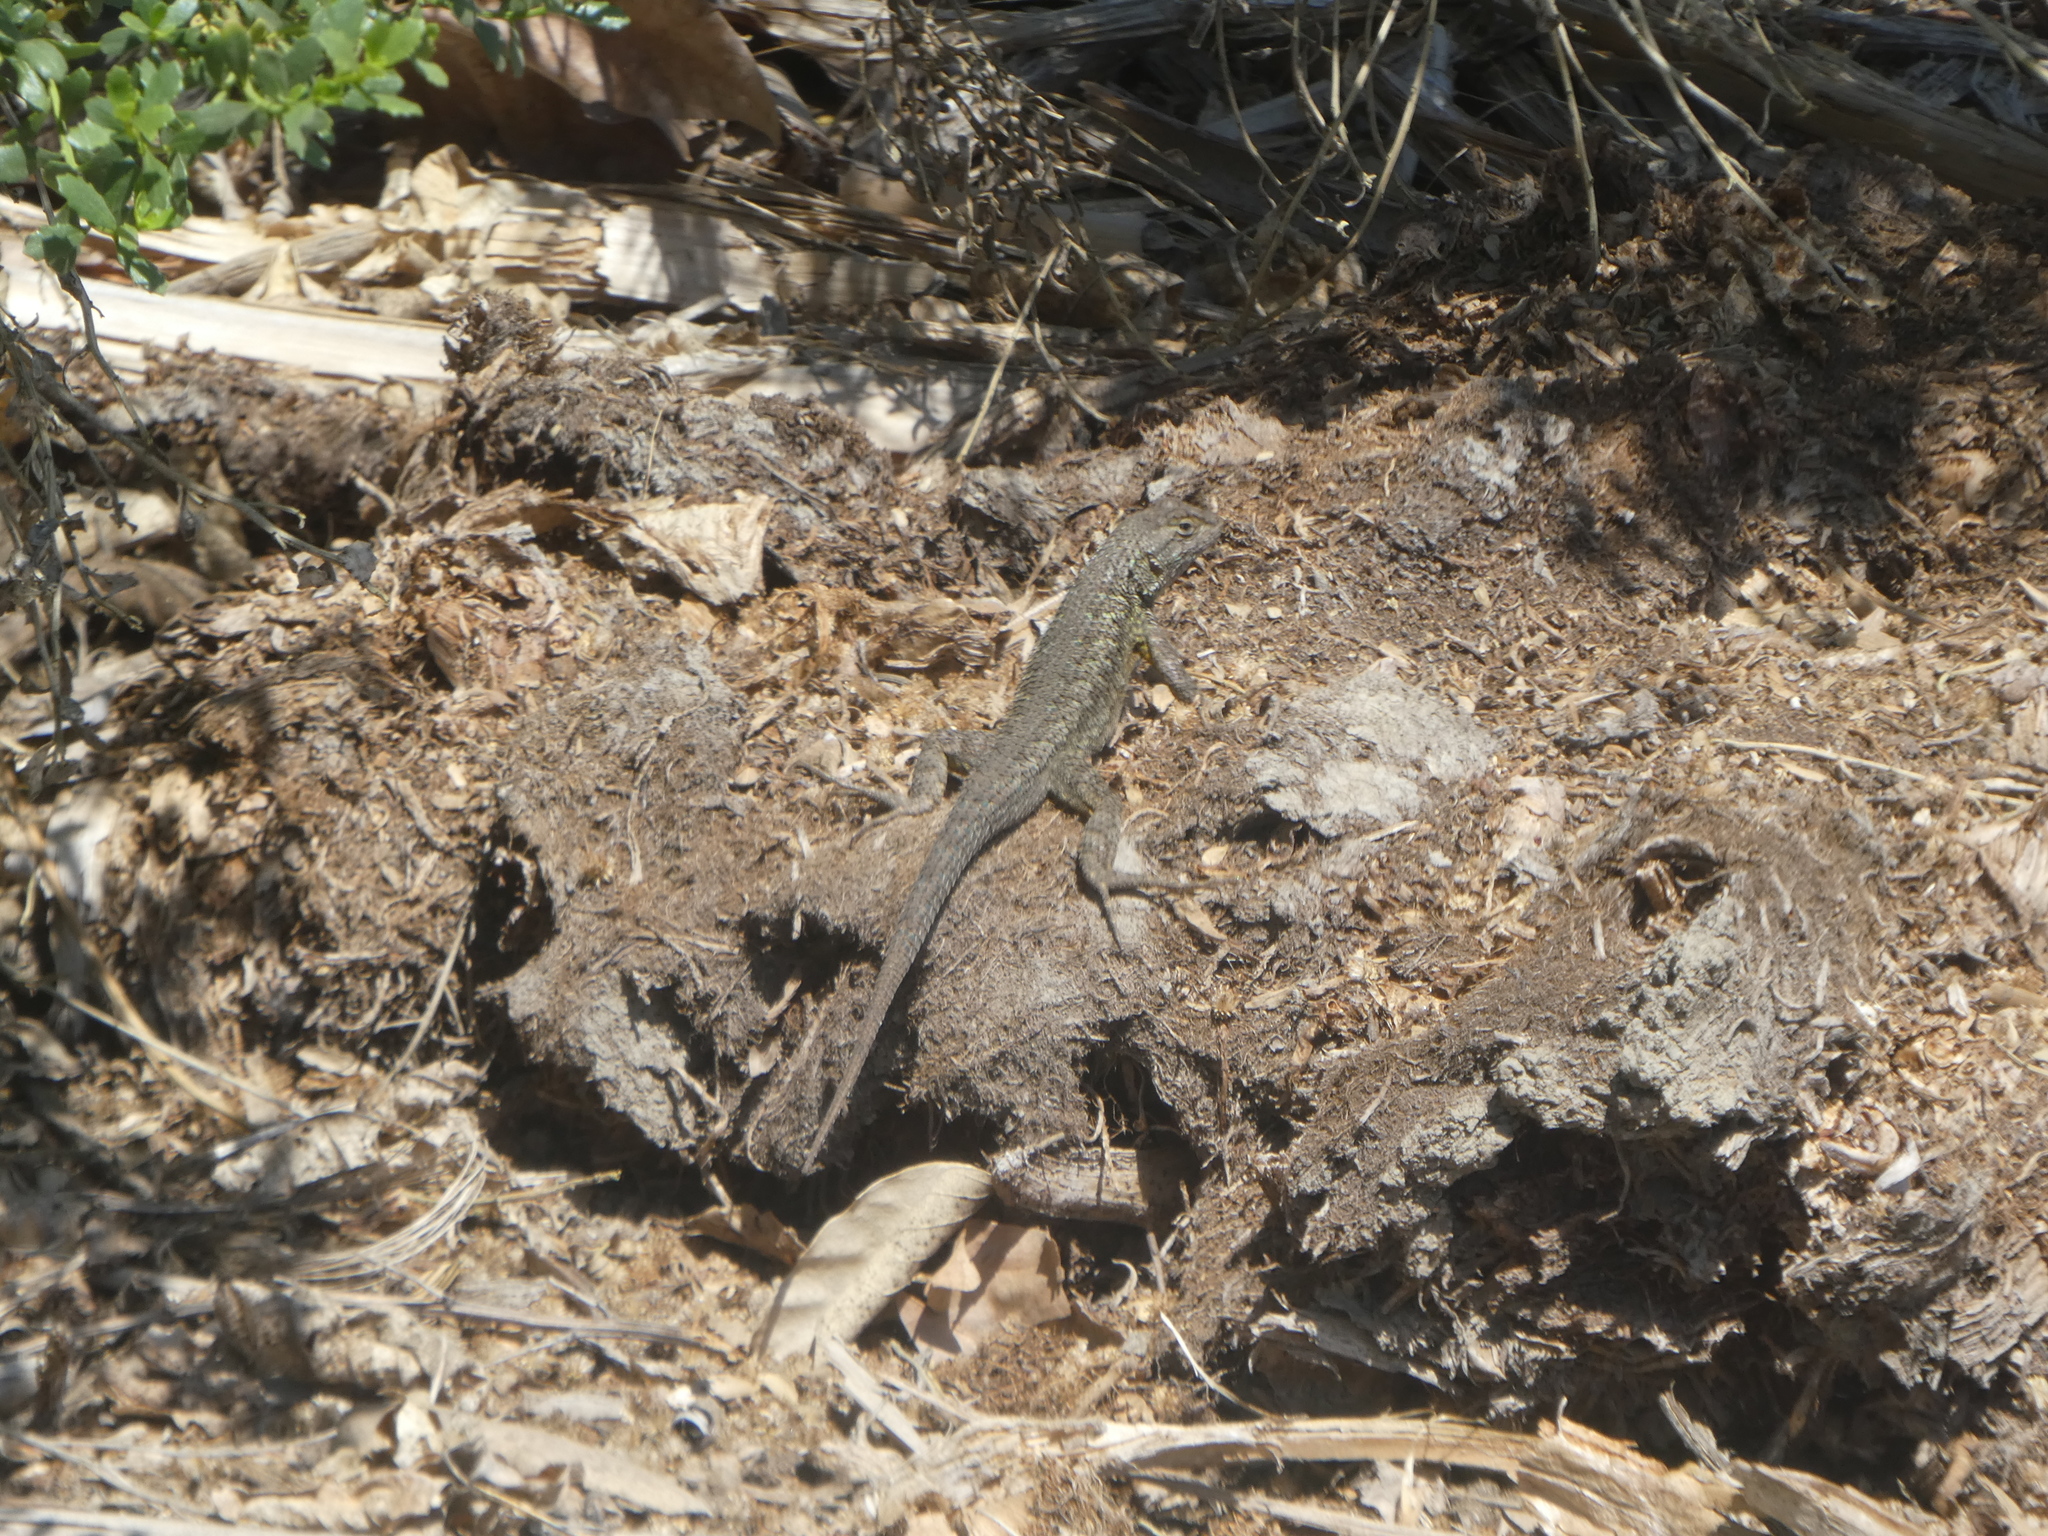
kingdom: Animalia
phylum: Chordata
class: Squamata
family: Phrynosomatidae
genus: Sceloporus
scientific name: Sceloporus occidentalis
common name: Western fence lizard
